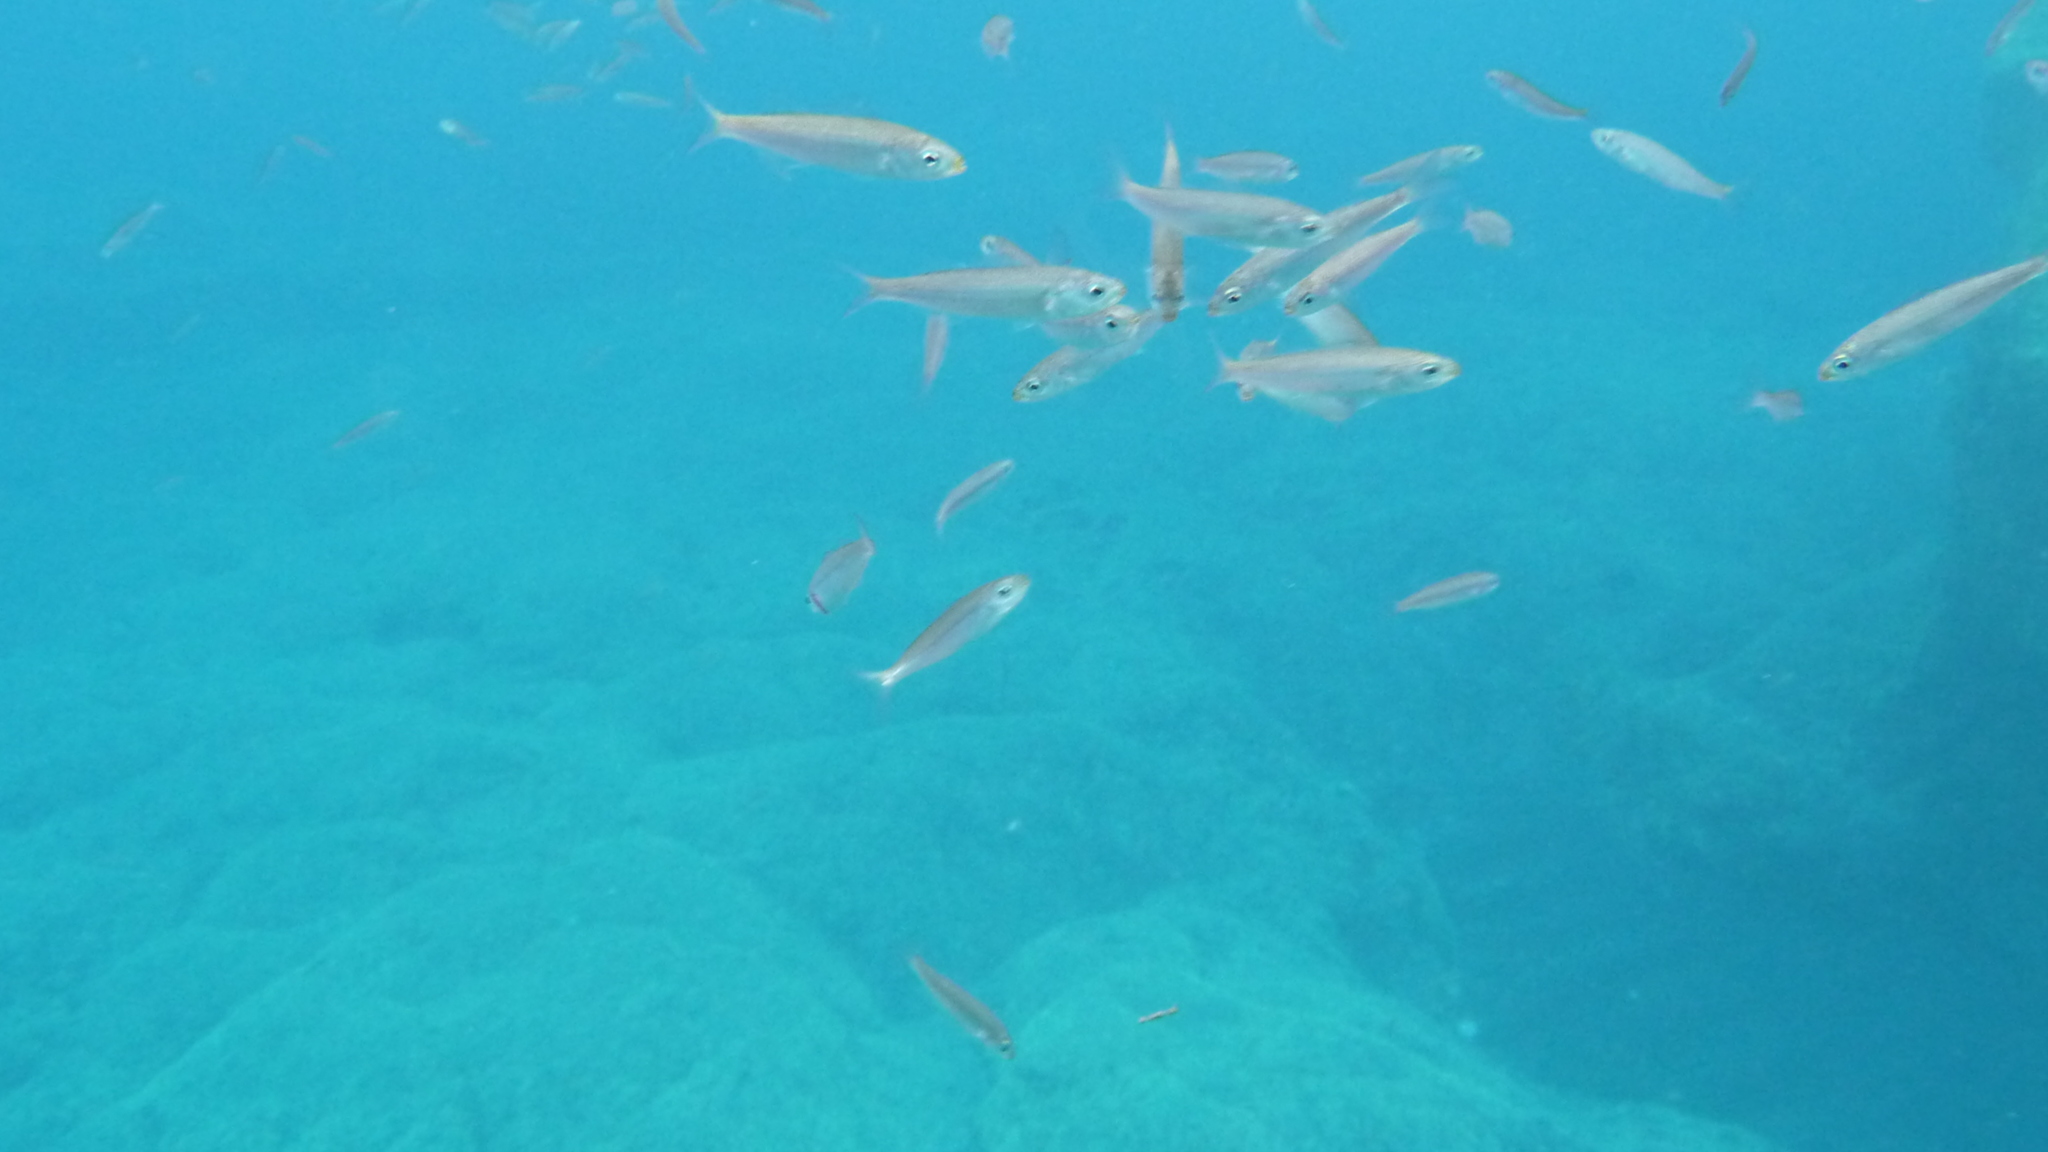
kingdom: Animalia
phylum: Chordata
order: Perciformes
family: Sparidae
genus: Boops
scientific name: Boops boops
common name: Bogue
